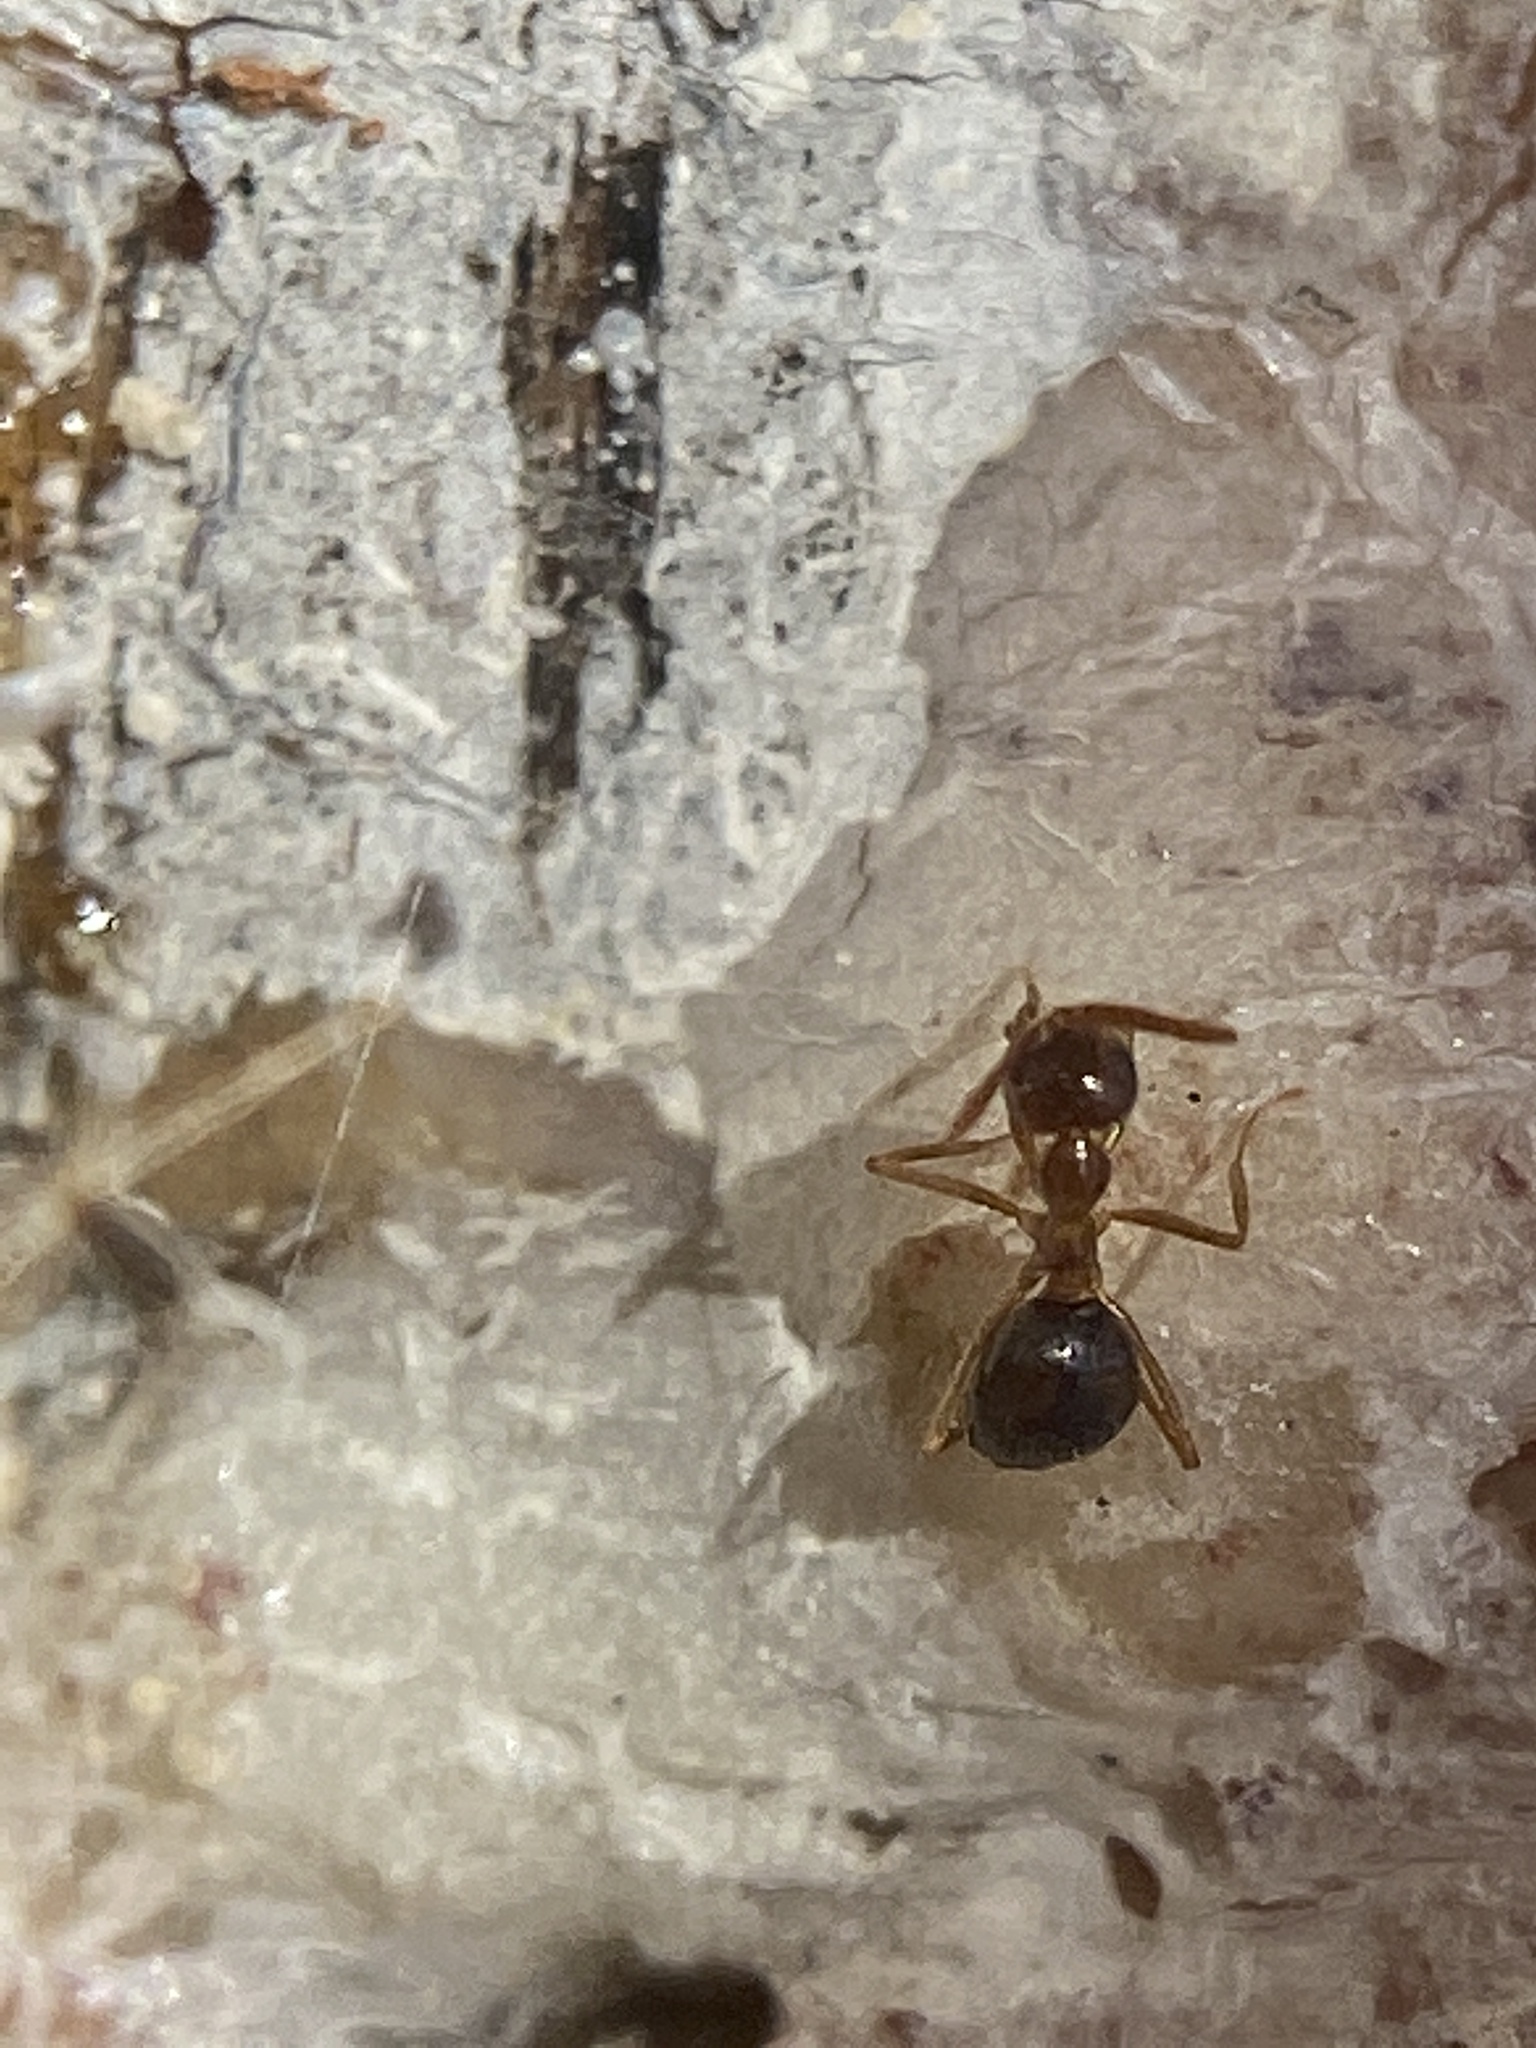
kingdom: Animalia
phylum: Arthropoda
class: Insecta
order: Hymenoptera
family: Formicidae
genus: Prenolepis
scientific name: Prenolepis imparis
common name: Small honey ant
